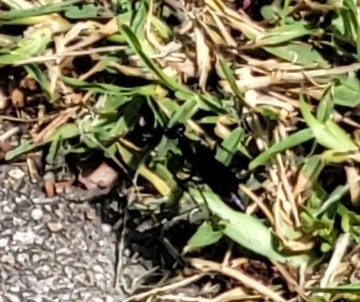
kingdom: Animalia
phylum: Arthropoda
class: Insecta
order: Hymenoptera
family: Sphecidae
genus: Chlorion
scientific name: Chlorion aerarium
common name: Steel-blue cricket hunter
